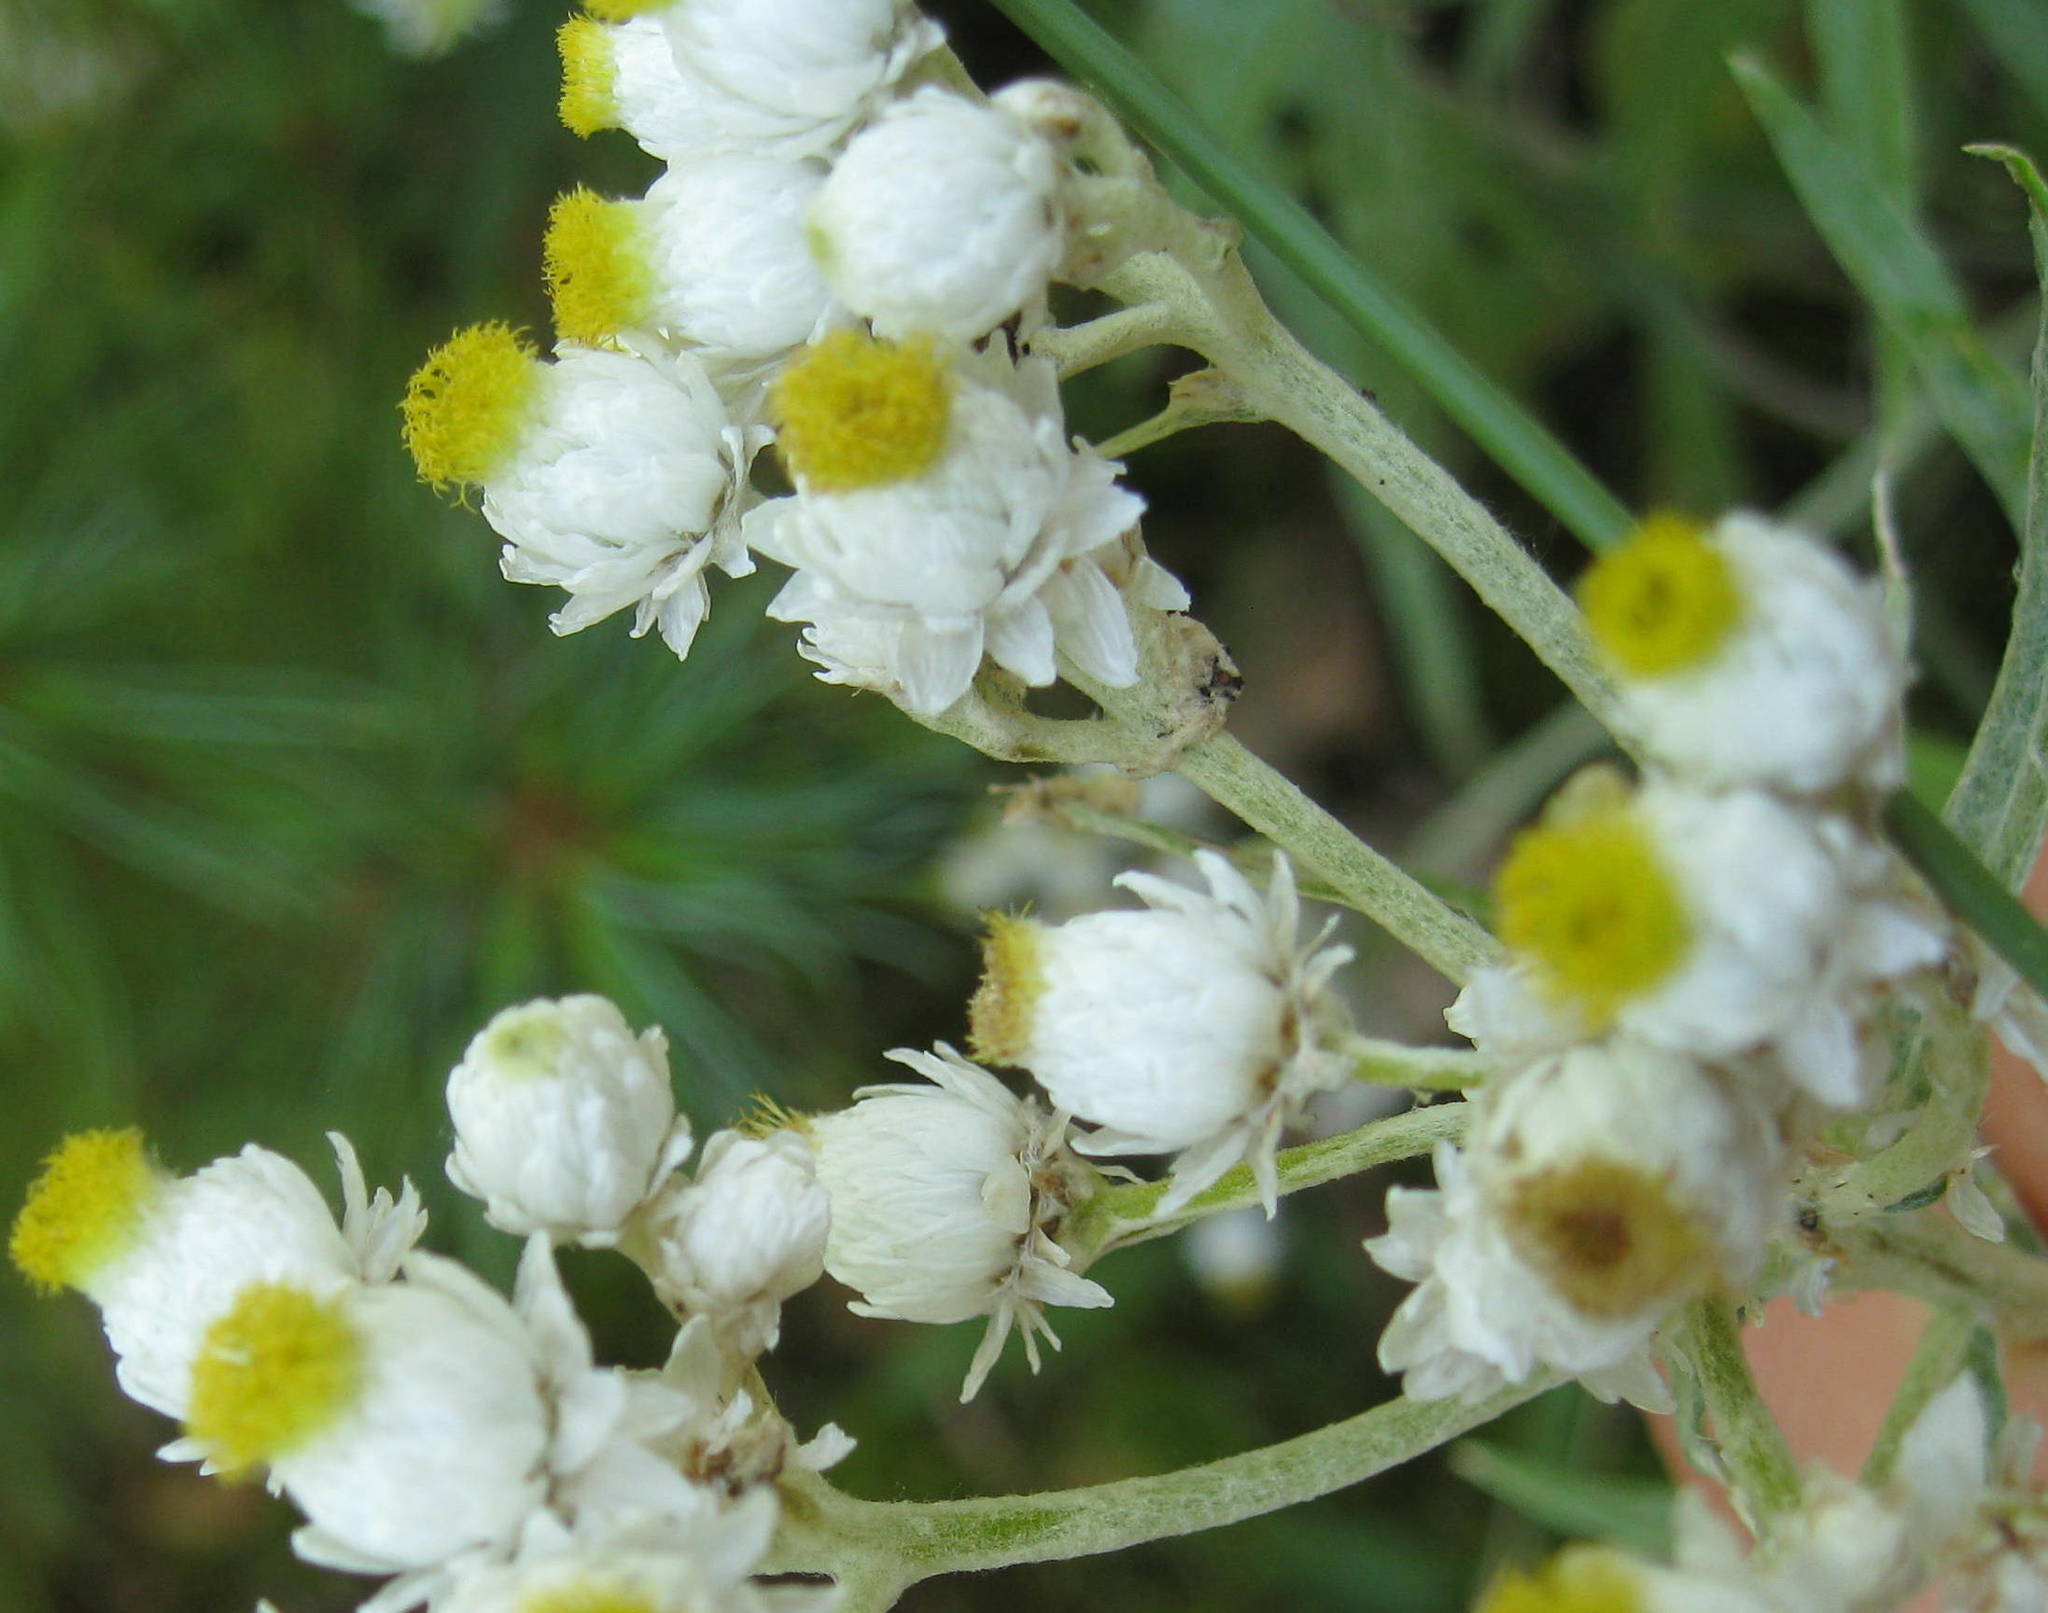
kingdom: Plantae
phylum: Tracheophyta
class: Magnoliopsida
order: Asterales
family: Asteraceae
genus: Anaphalis
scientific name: Anaphalis margaritacea
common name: Pearly everlasting
